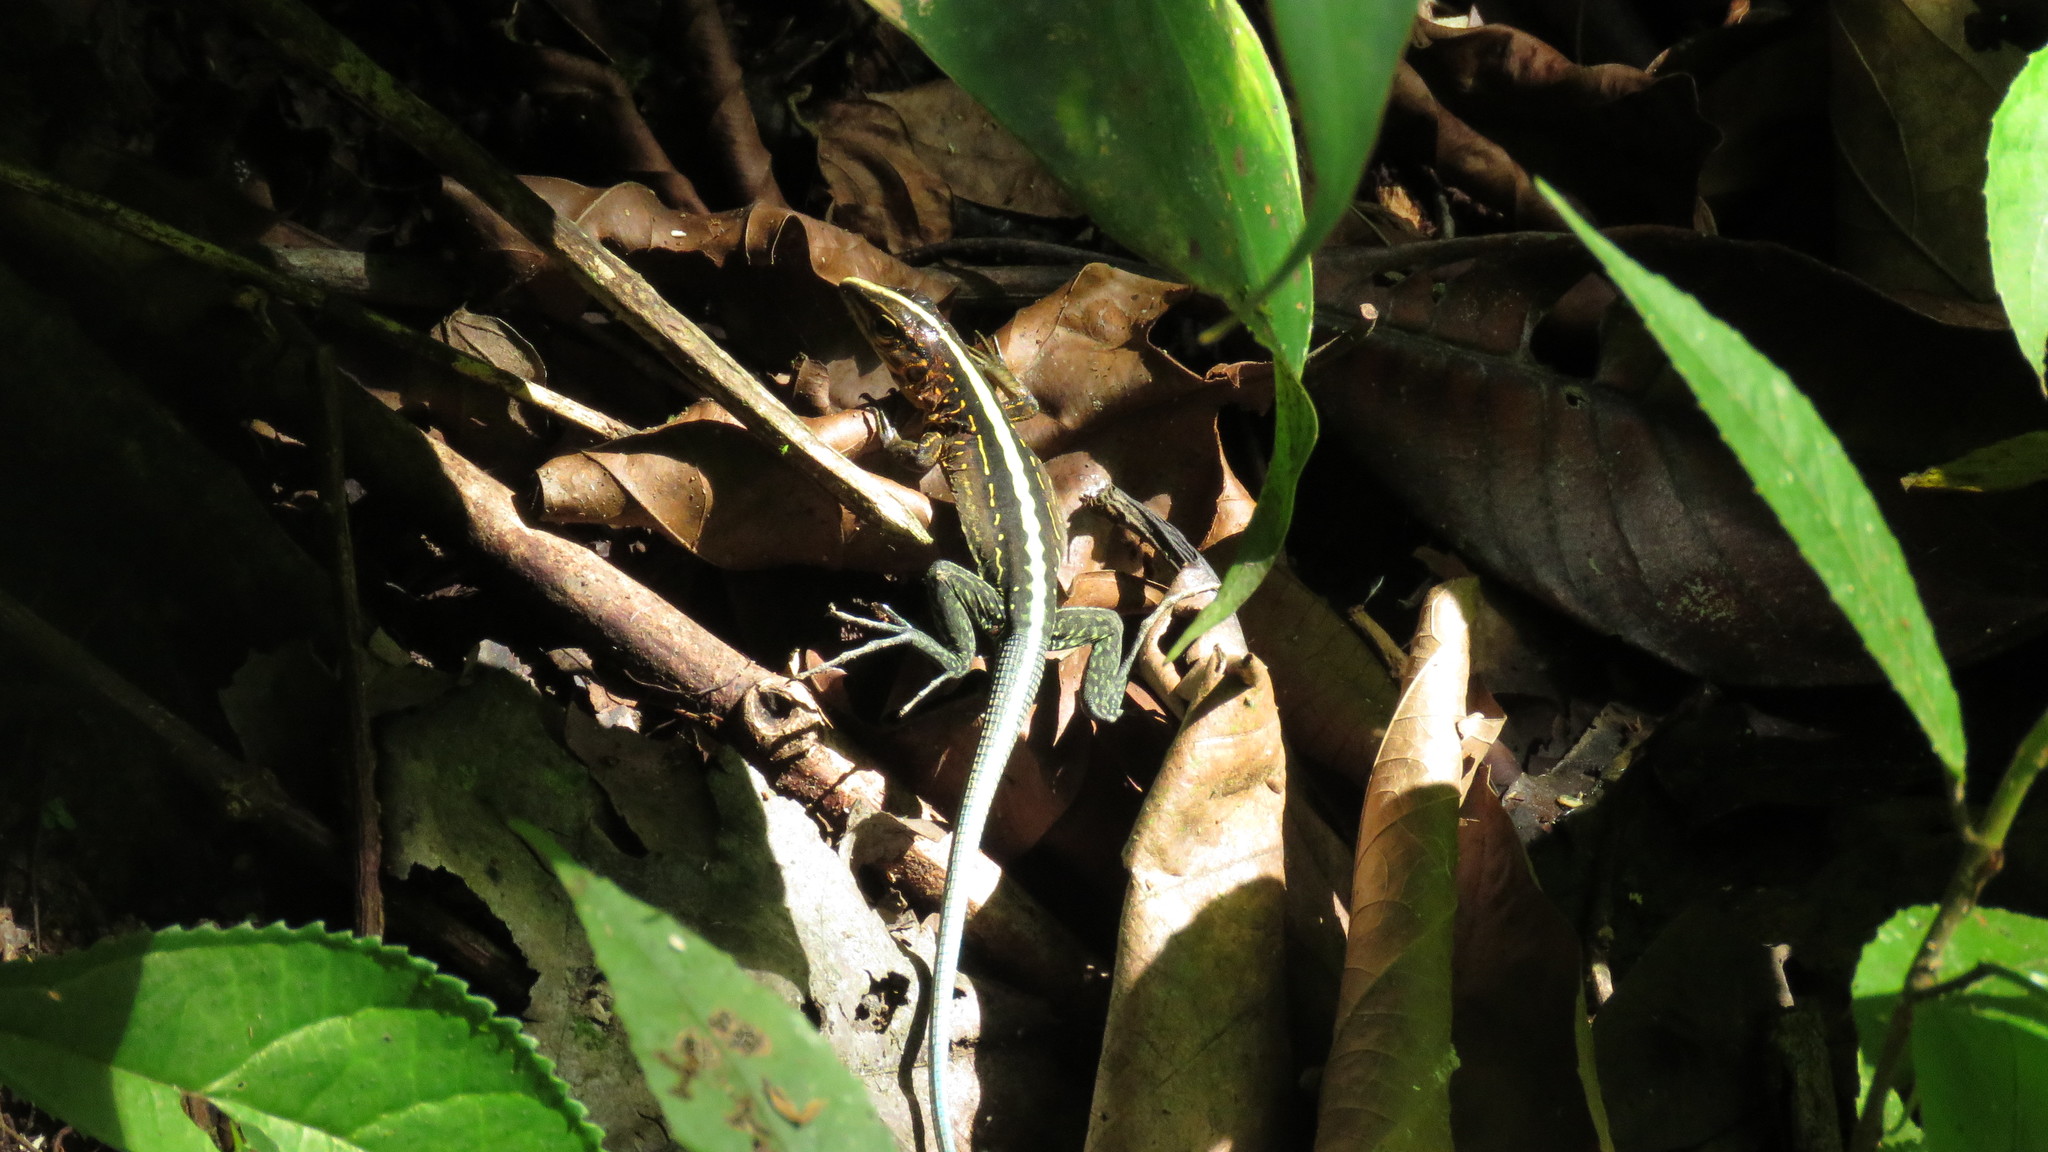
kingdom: Animalia
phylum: Chordata
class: Squamata
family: Teiidae
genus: Holcosus
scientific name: Holcosus festivus
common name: Middle american ameiva
